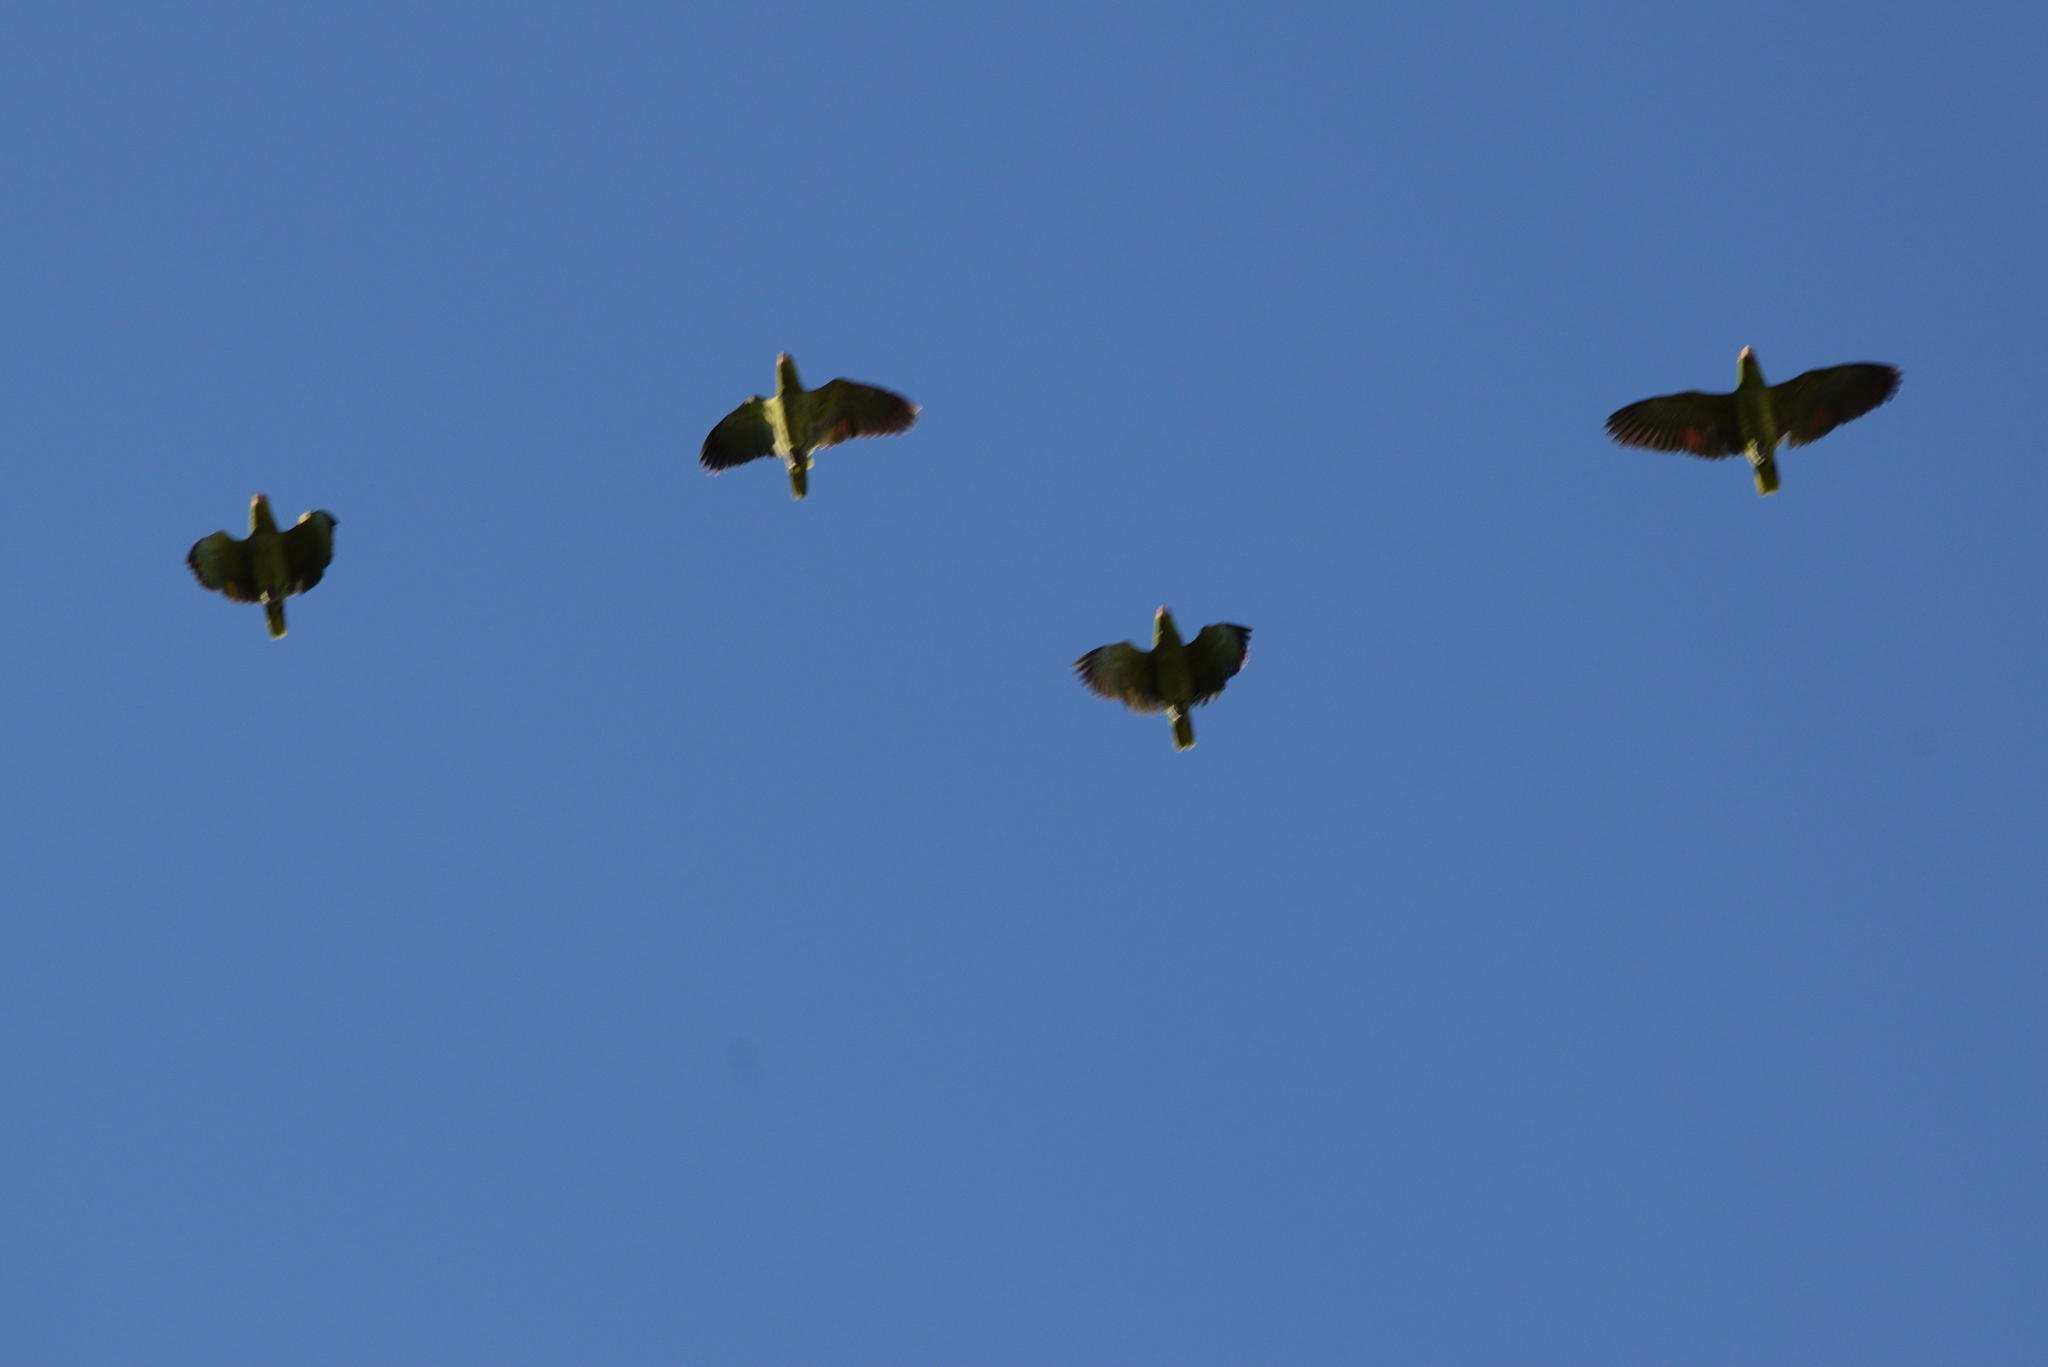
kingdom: Animalia
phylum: Chordata
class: Aves
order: Psittaciformes
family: Psittacidae
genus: Amazona
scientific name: Amazona
